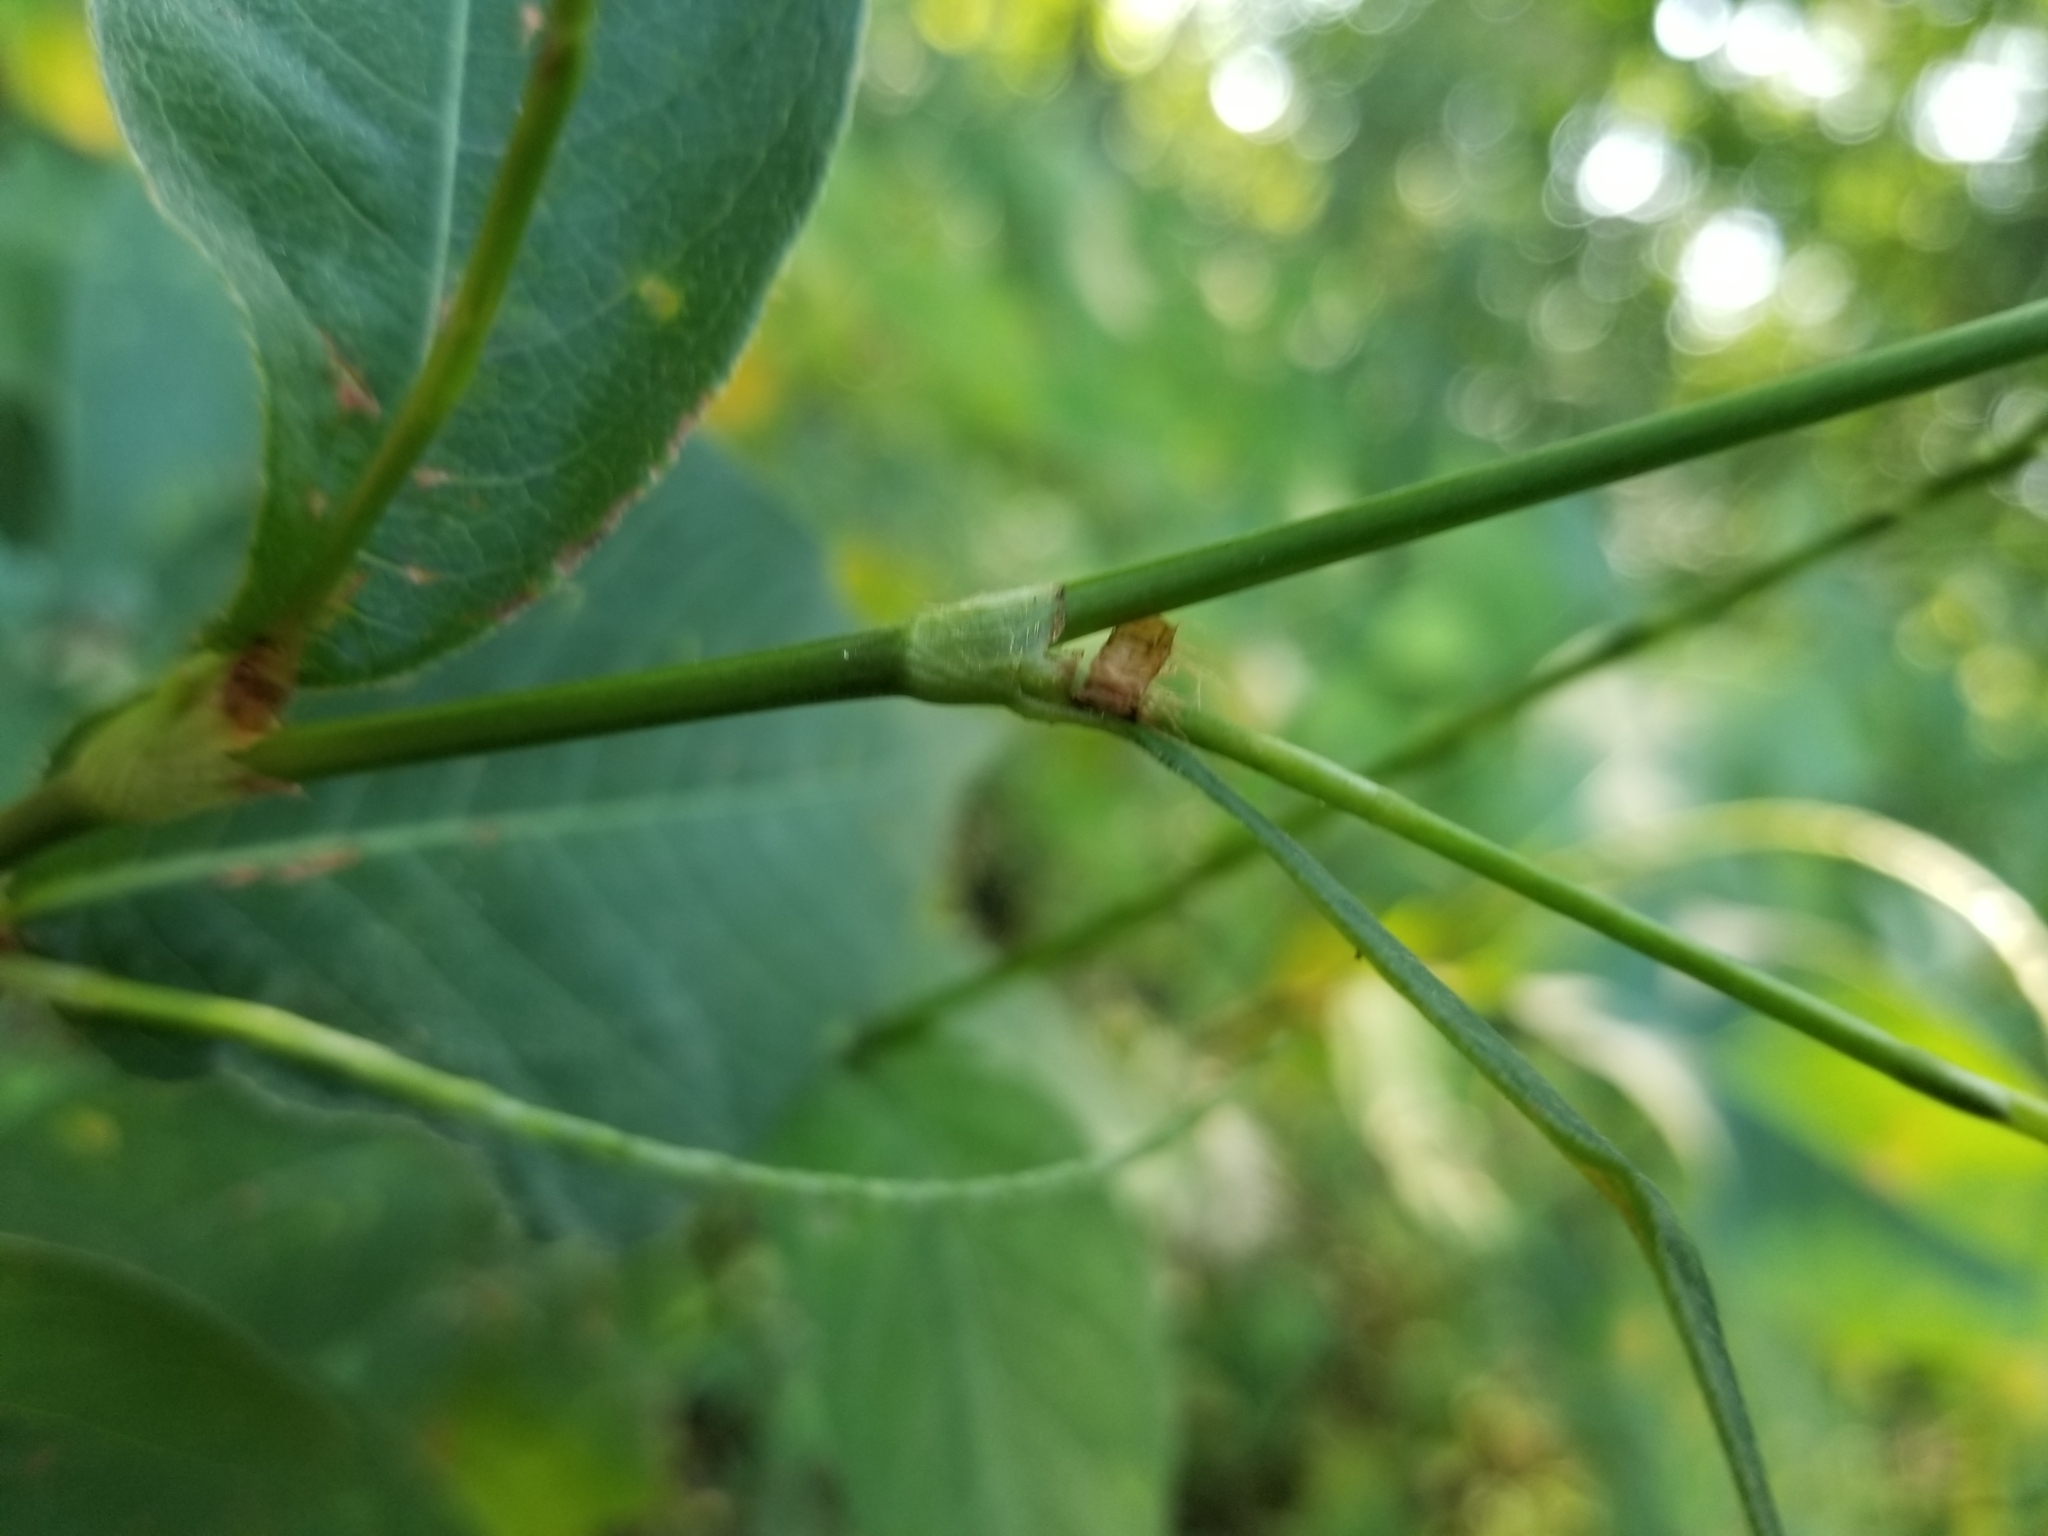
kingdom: Plantae
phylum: Tracheophyta
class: Magnoliopsida
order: Caryophyllales
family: Polygonaceae
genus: Persicaria
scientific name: Persicaria virginiana
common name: Jumpseed
